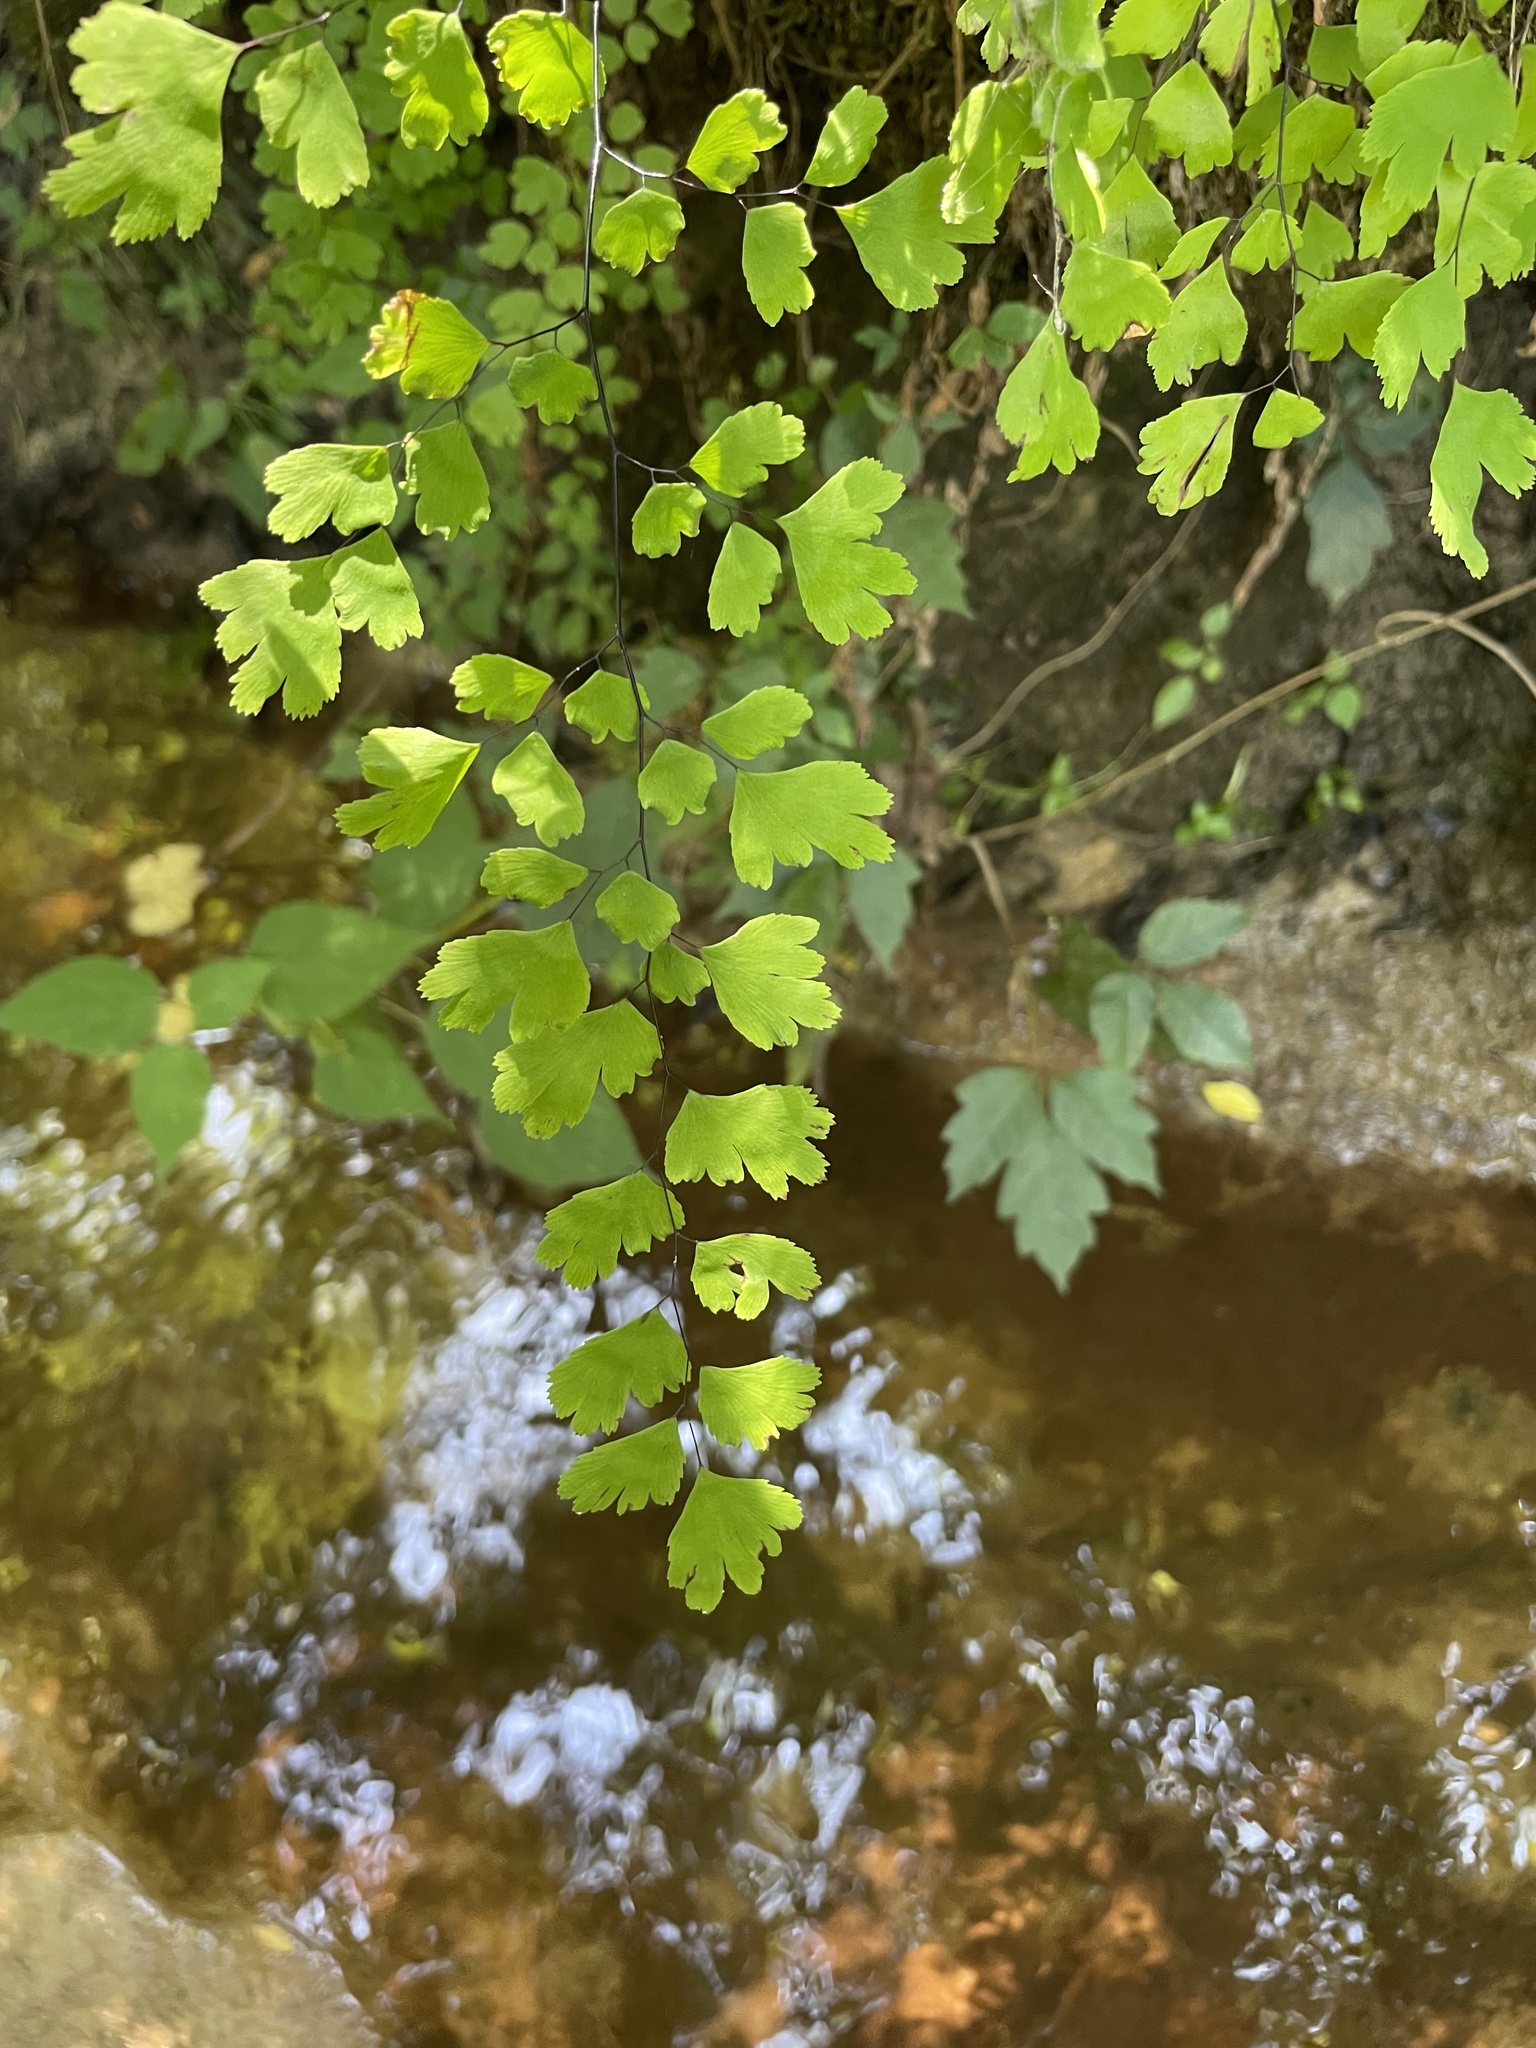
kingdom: Plantae
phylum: Tracheophyta
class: Polypodiopsida
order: Polypodiales
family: Pteridaceae
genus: Adiantum
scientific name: Adiantum capillus-veneris
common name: Maidenhair fern
